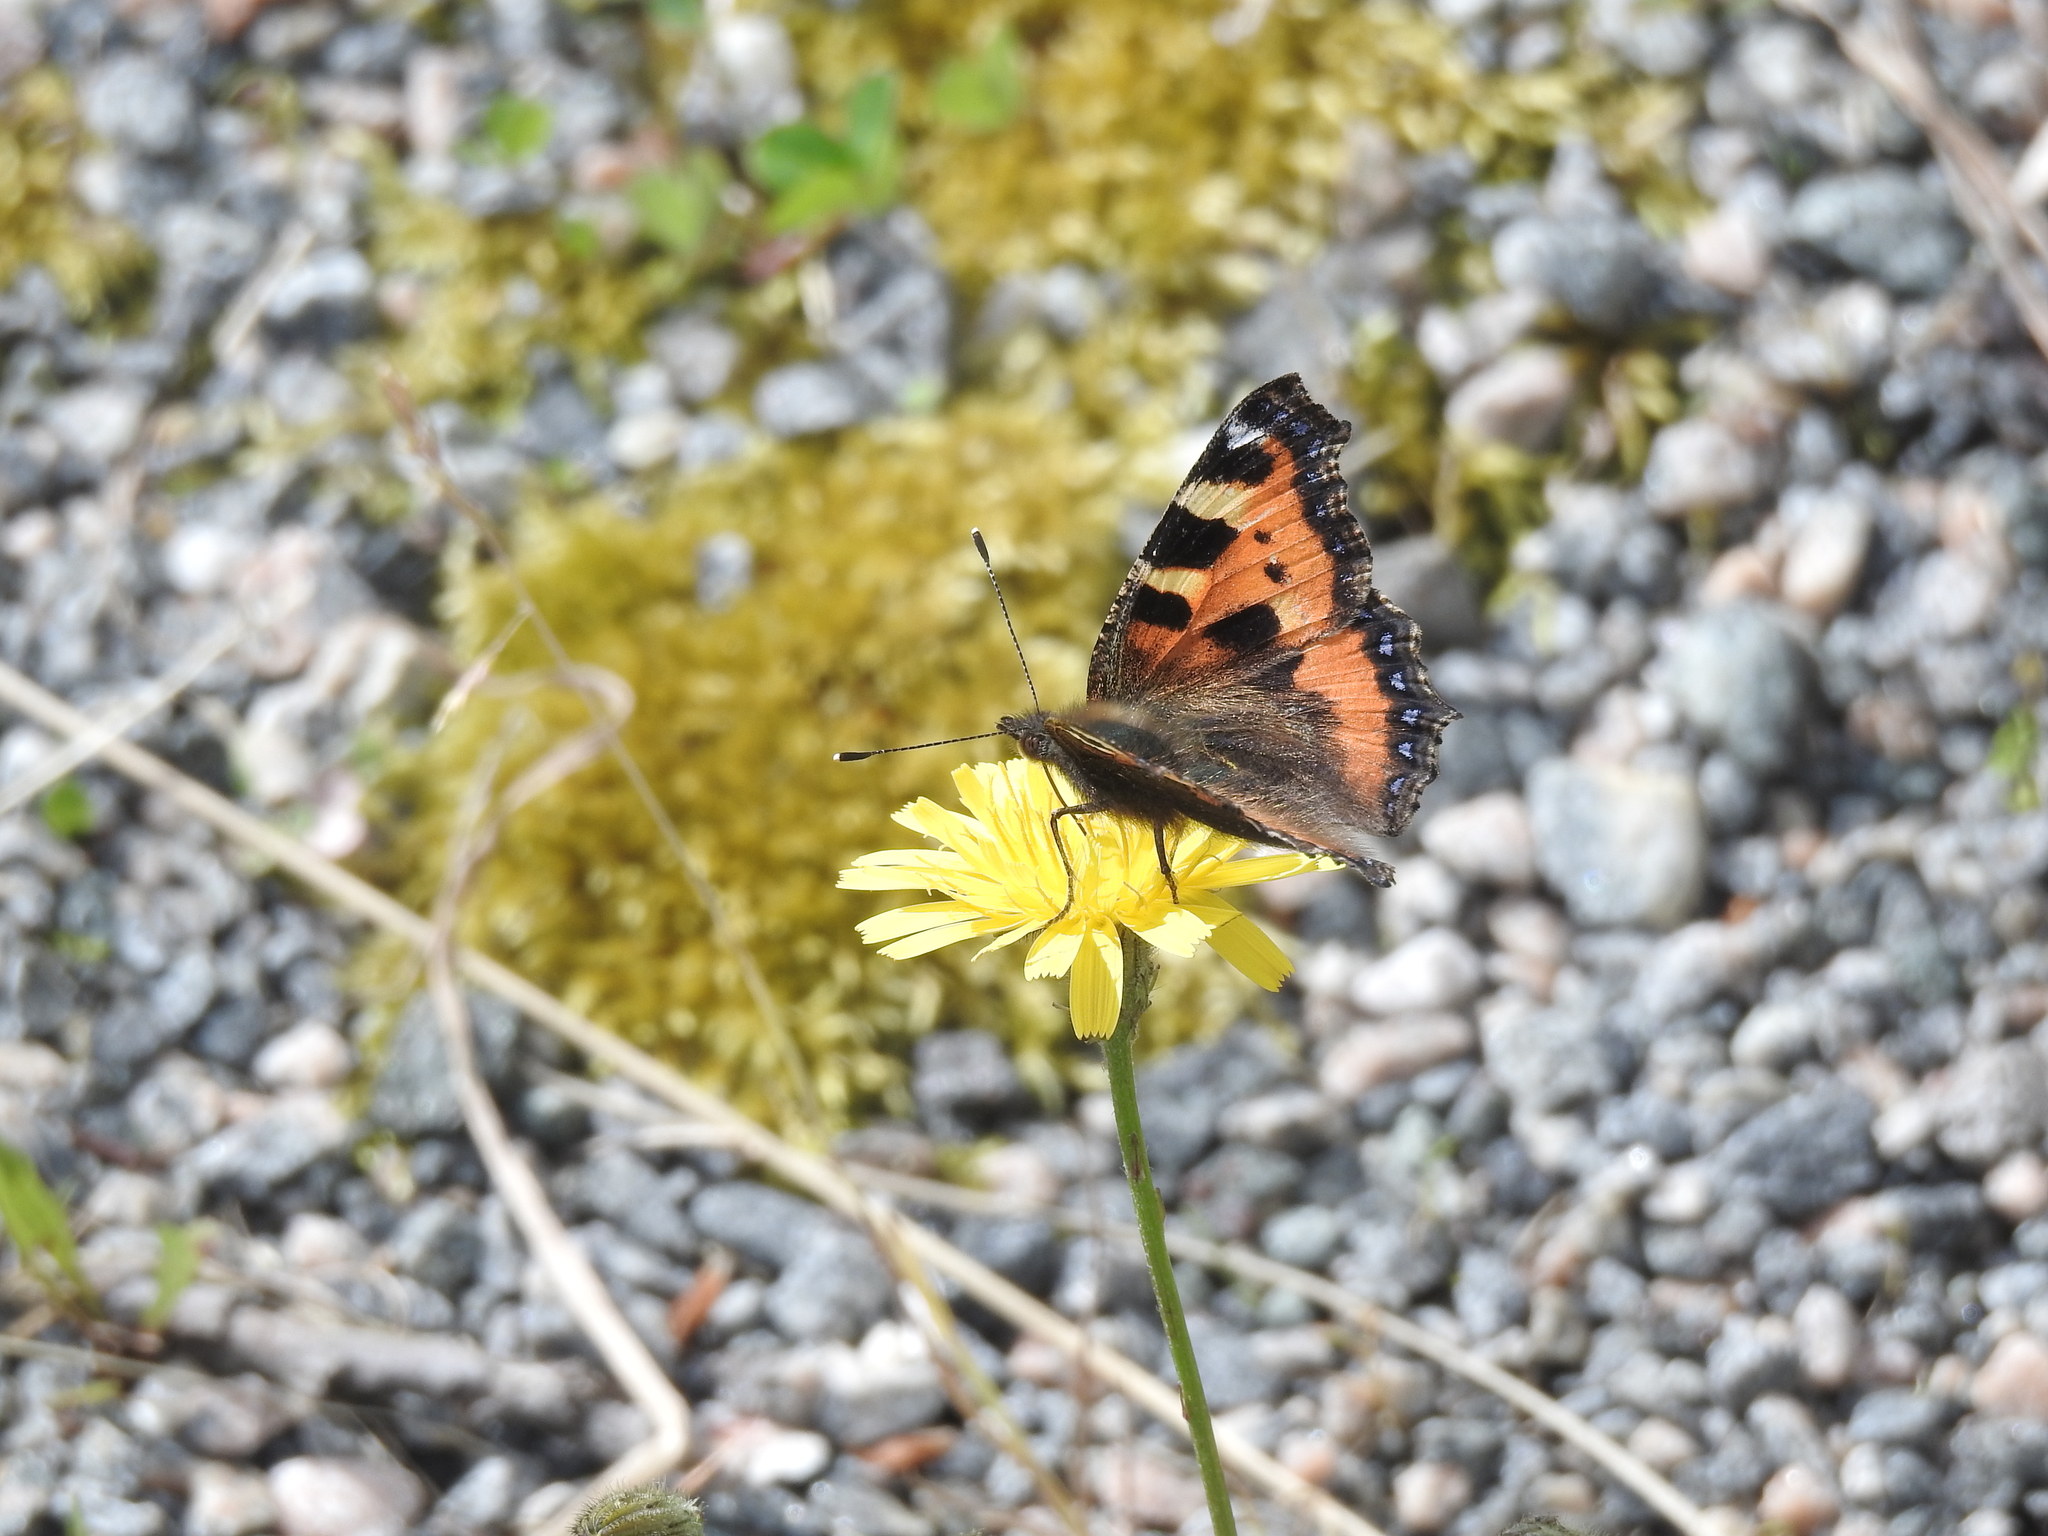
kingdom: Animalia
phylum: Arthropoda
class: Insecta
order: Lepidoptera
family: Nymphalidae
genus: Aglais
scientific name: Aglais urticae
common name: Small tortoiseshell
